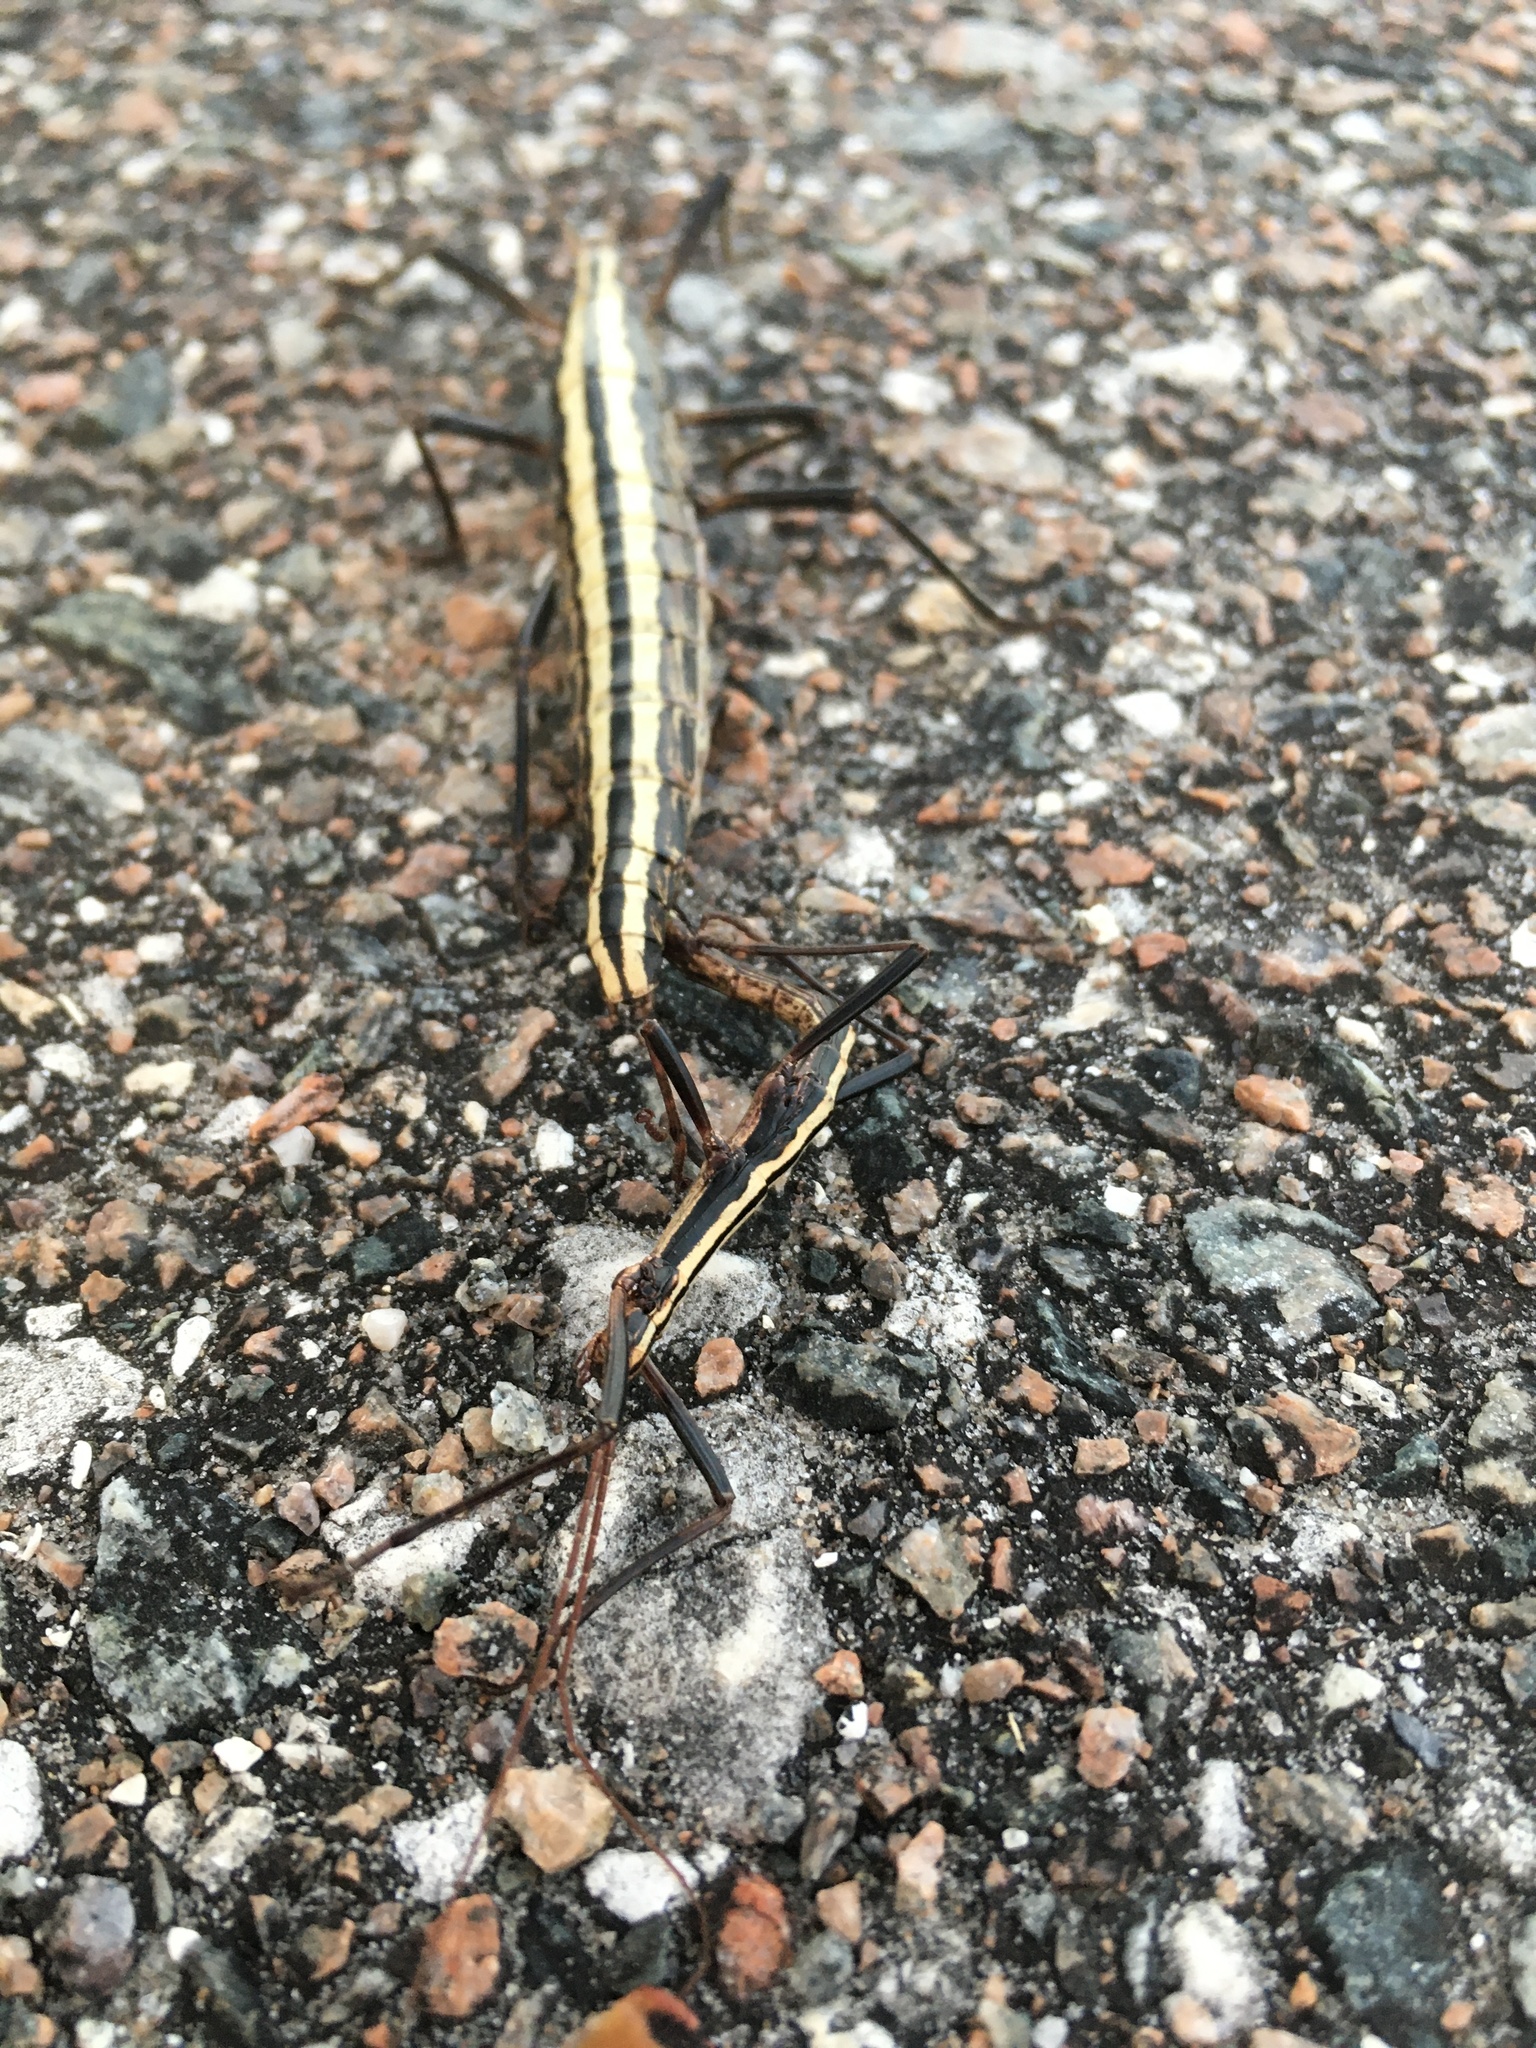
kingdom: Animalia
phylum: Arthropoda
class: Insecta
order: Phasmida
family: Pseudophasmatidae
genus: Anisomorpha
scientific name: Anisomorpha buprestoides
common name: Florida stick insect
